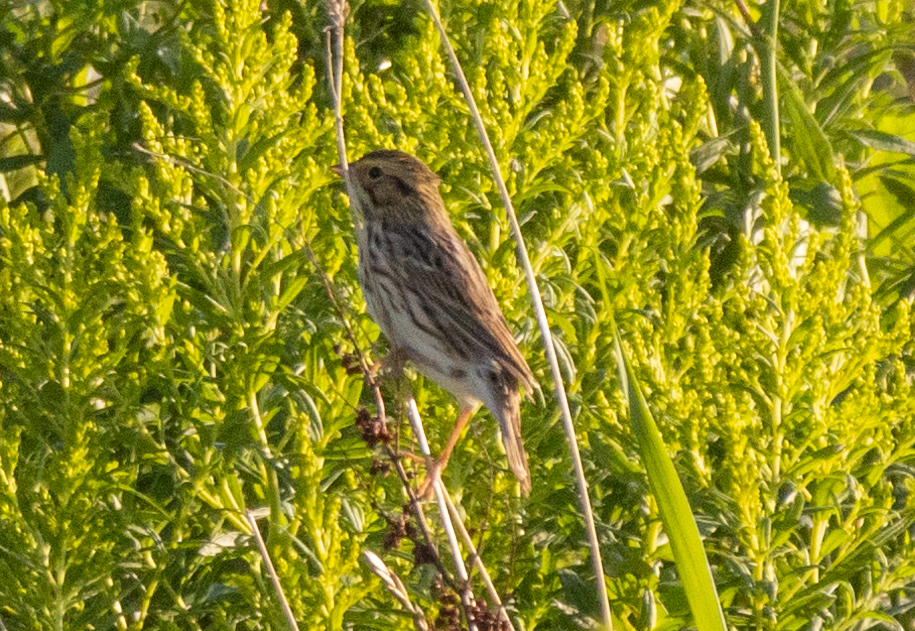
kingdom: Animalia
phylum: Chordata
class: Aves
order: Passeriformes
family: Passerellidae
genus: Passerculus
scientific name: Passerculus sandwichensis
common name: Savannah sparrow
